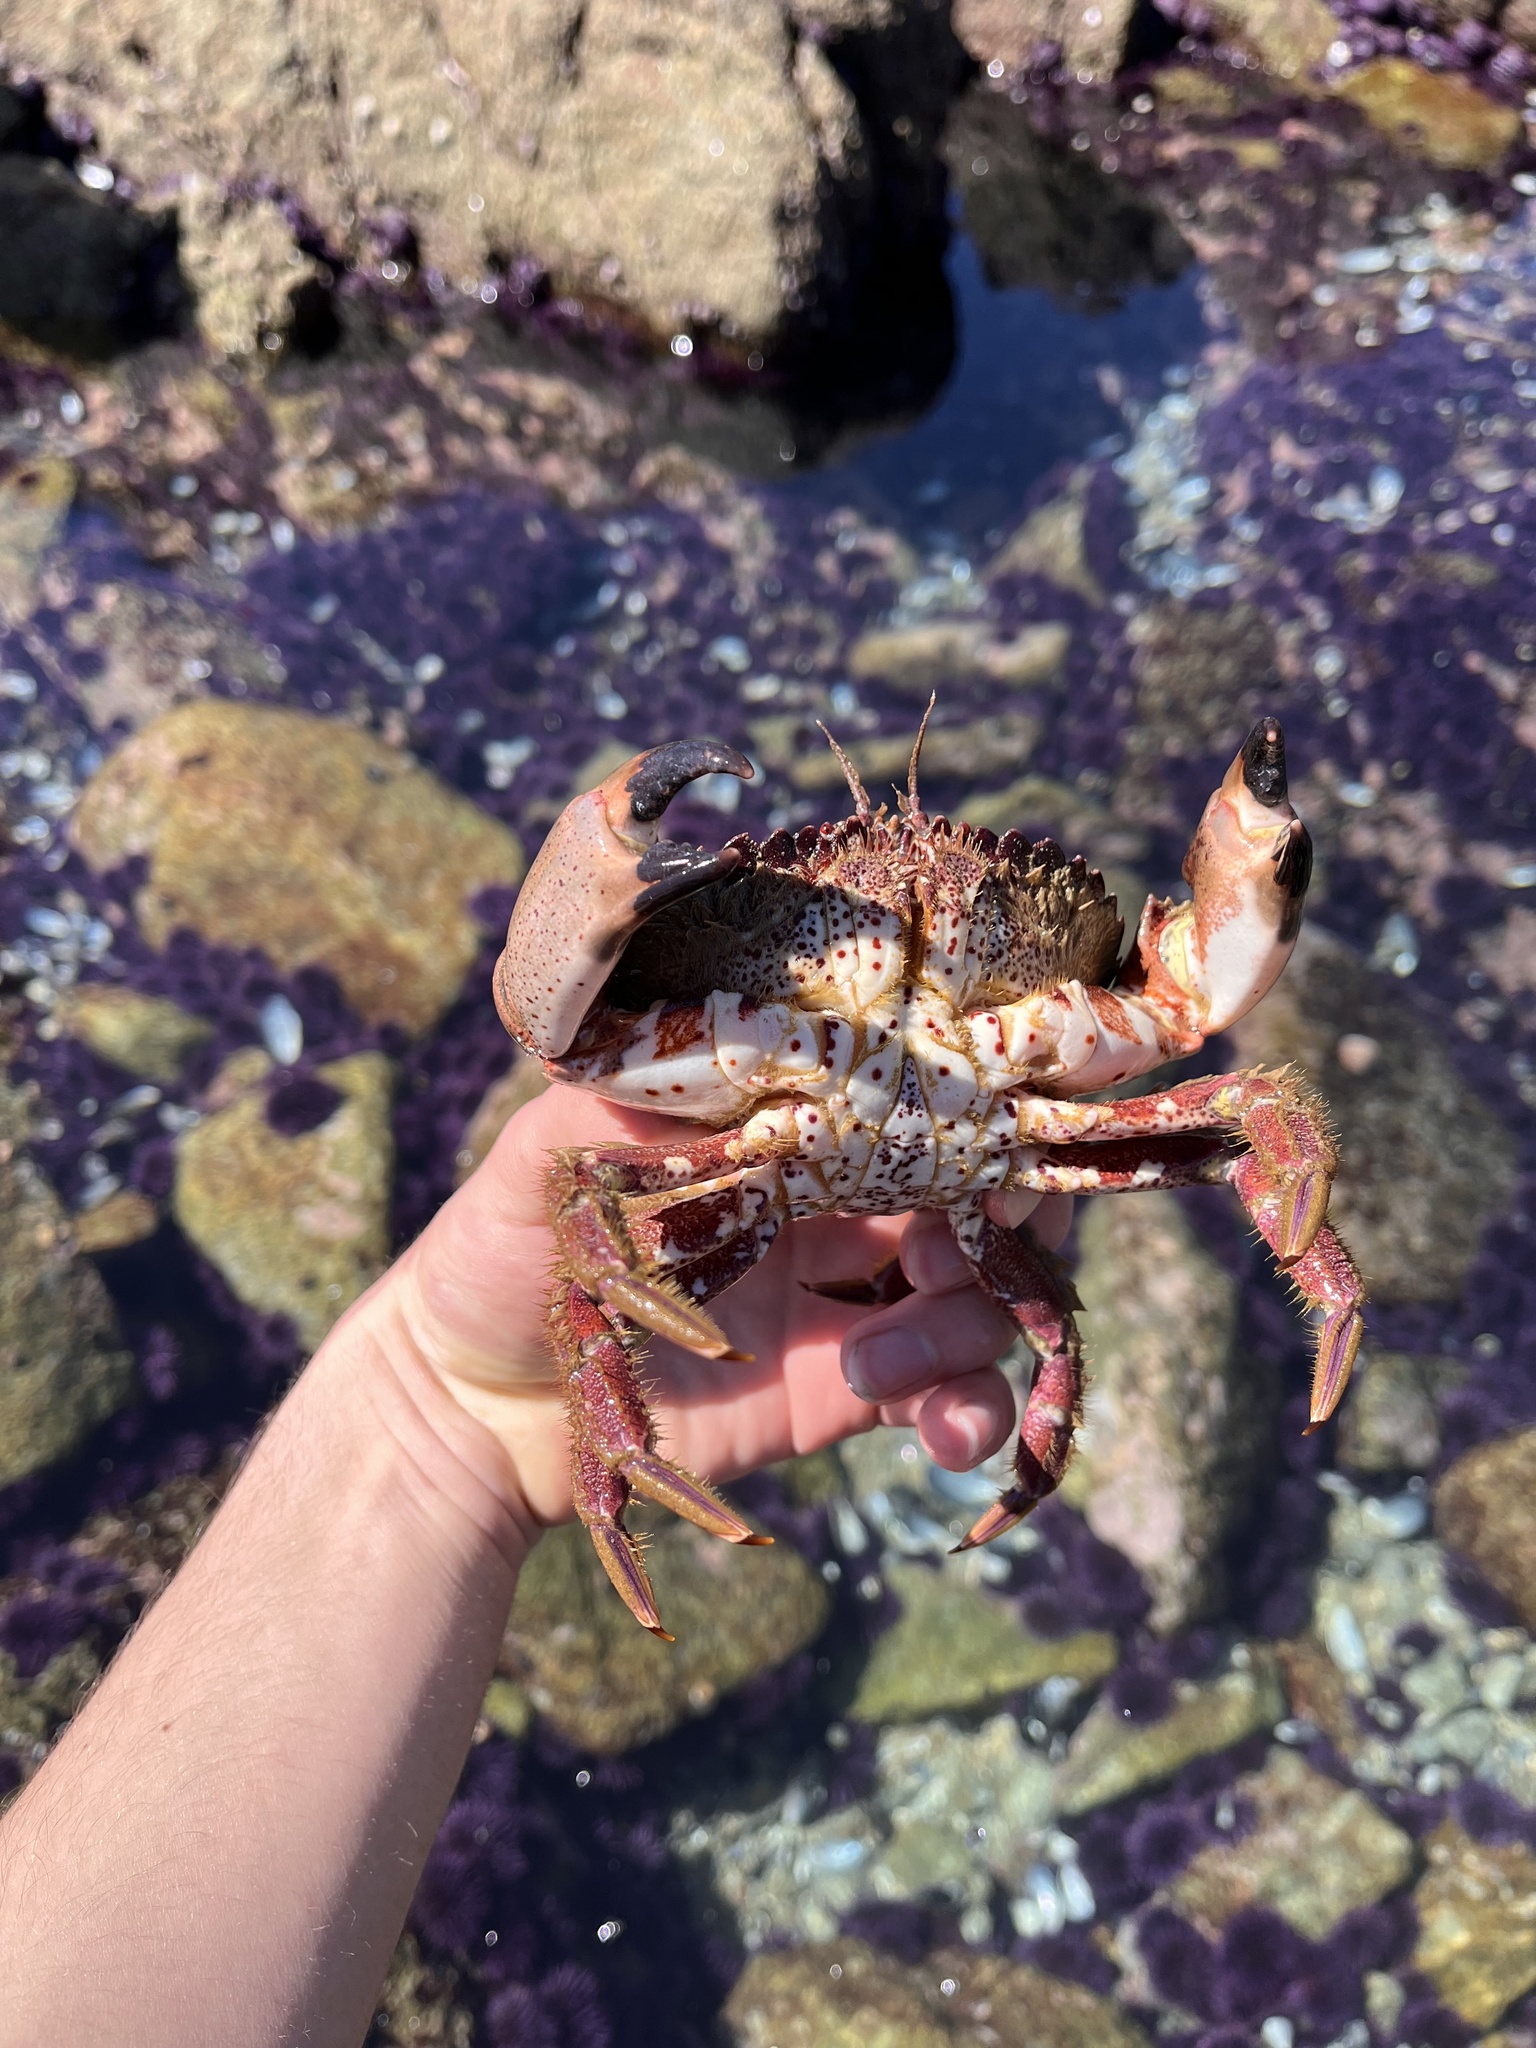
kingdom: Animalia
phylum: Arthropoda
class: Malacostraca
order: Decapoda
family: Cancridae
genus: Romaleon
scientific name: Romaleon antennarium
